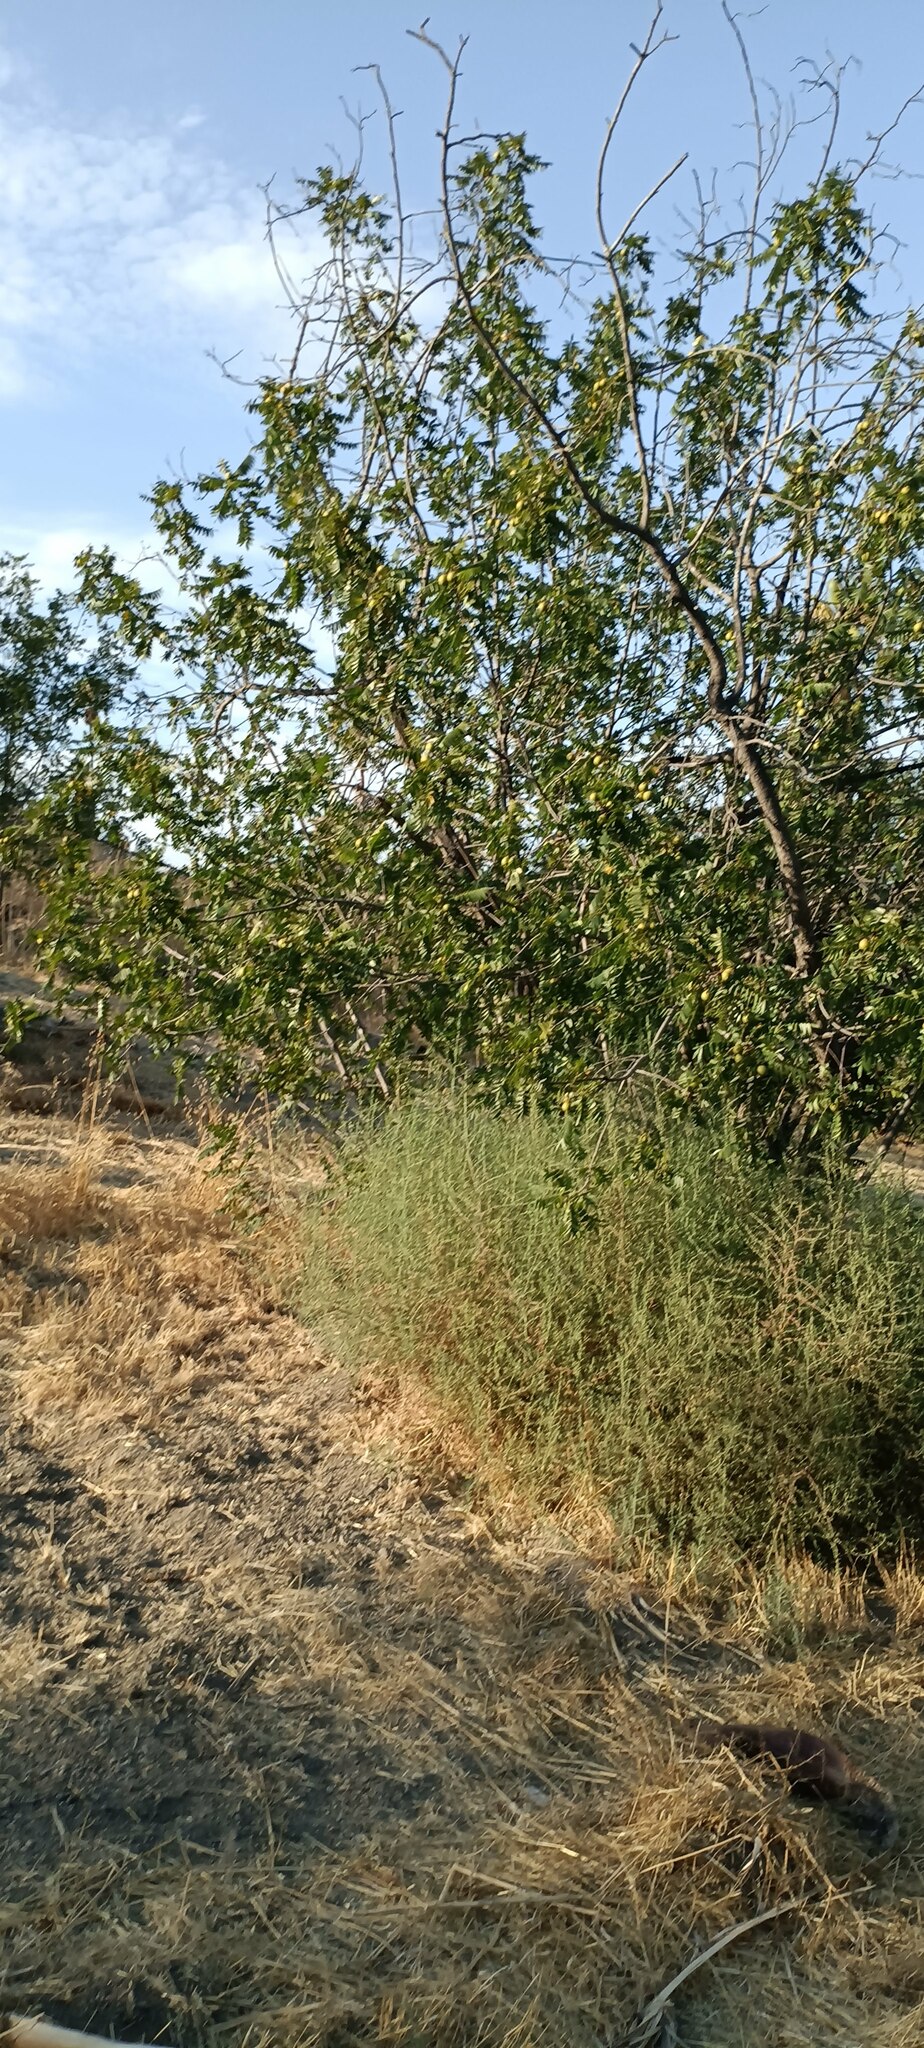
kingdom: Plantae
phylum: Tracheophyta
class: Magnoliopsida
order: Fagales
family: Juglandaceae
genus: Juglans
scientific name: Juglans californica
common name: Southern california black walnut
